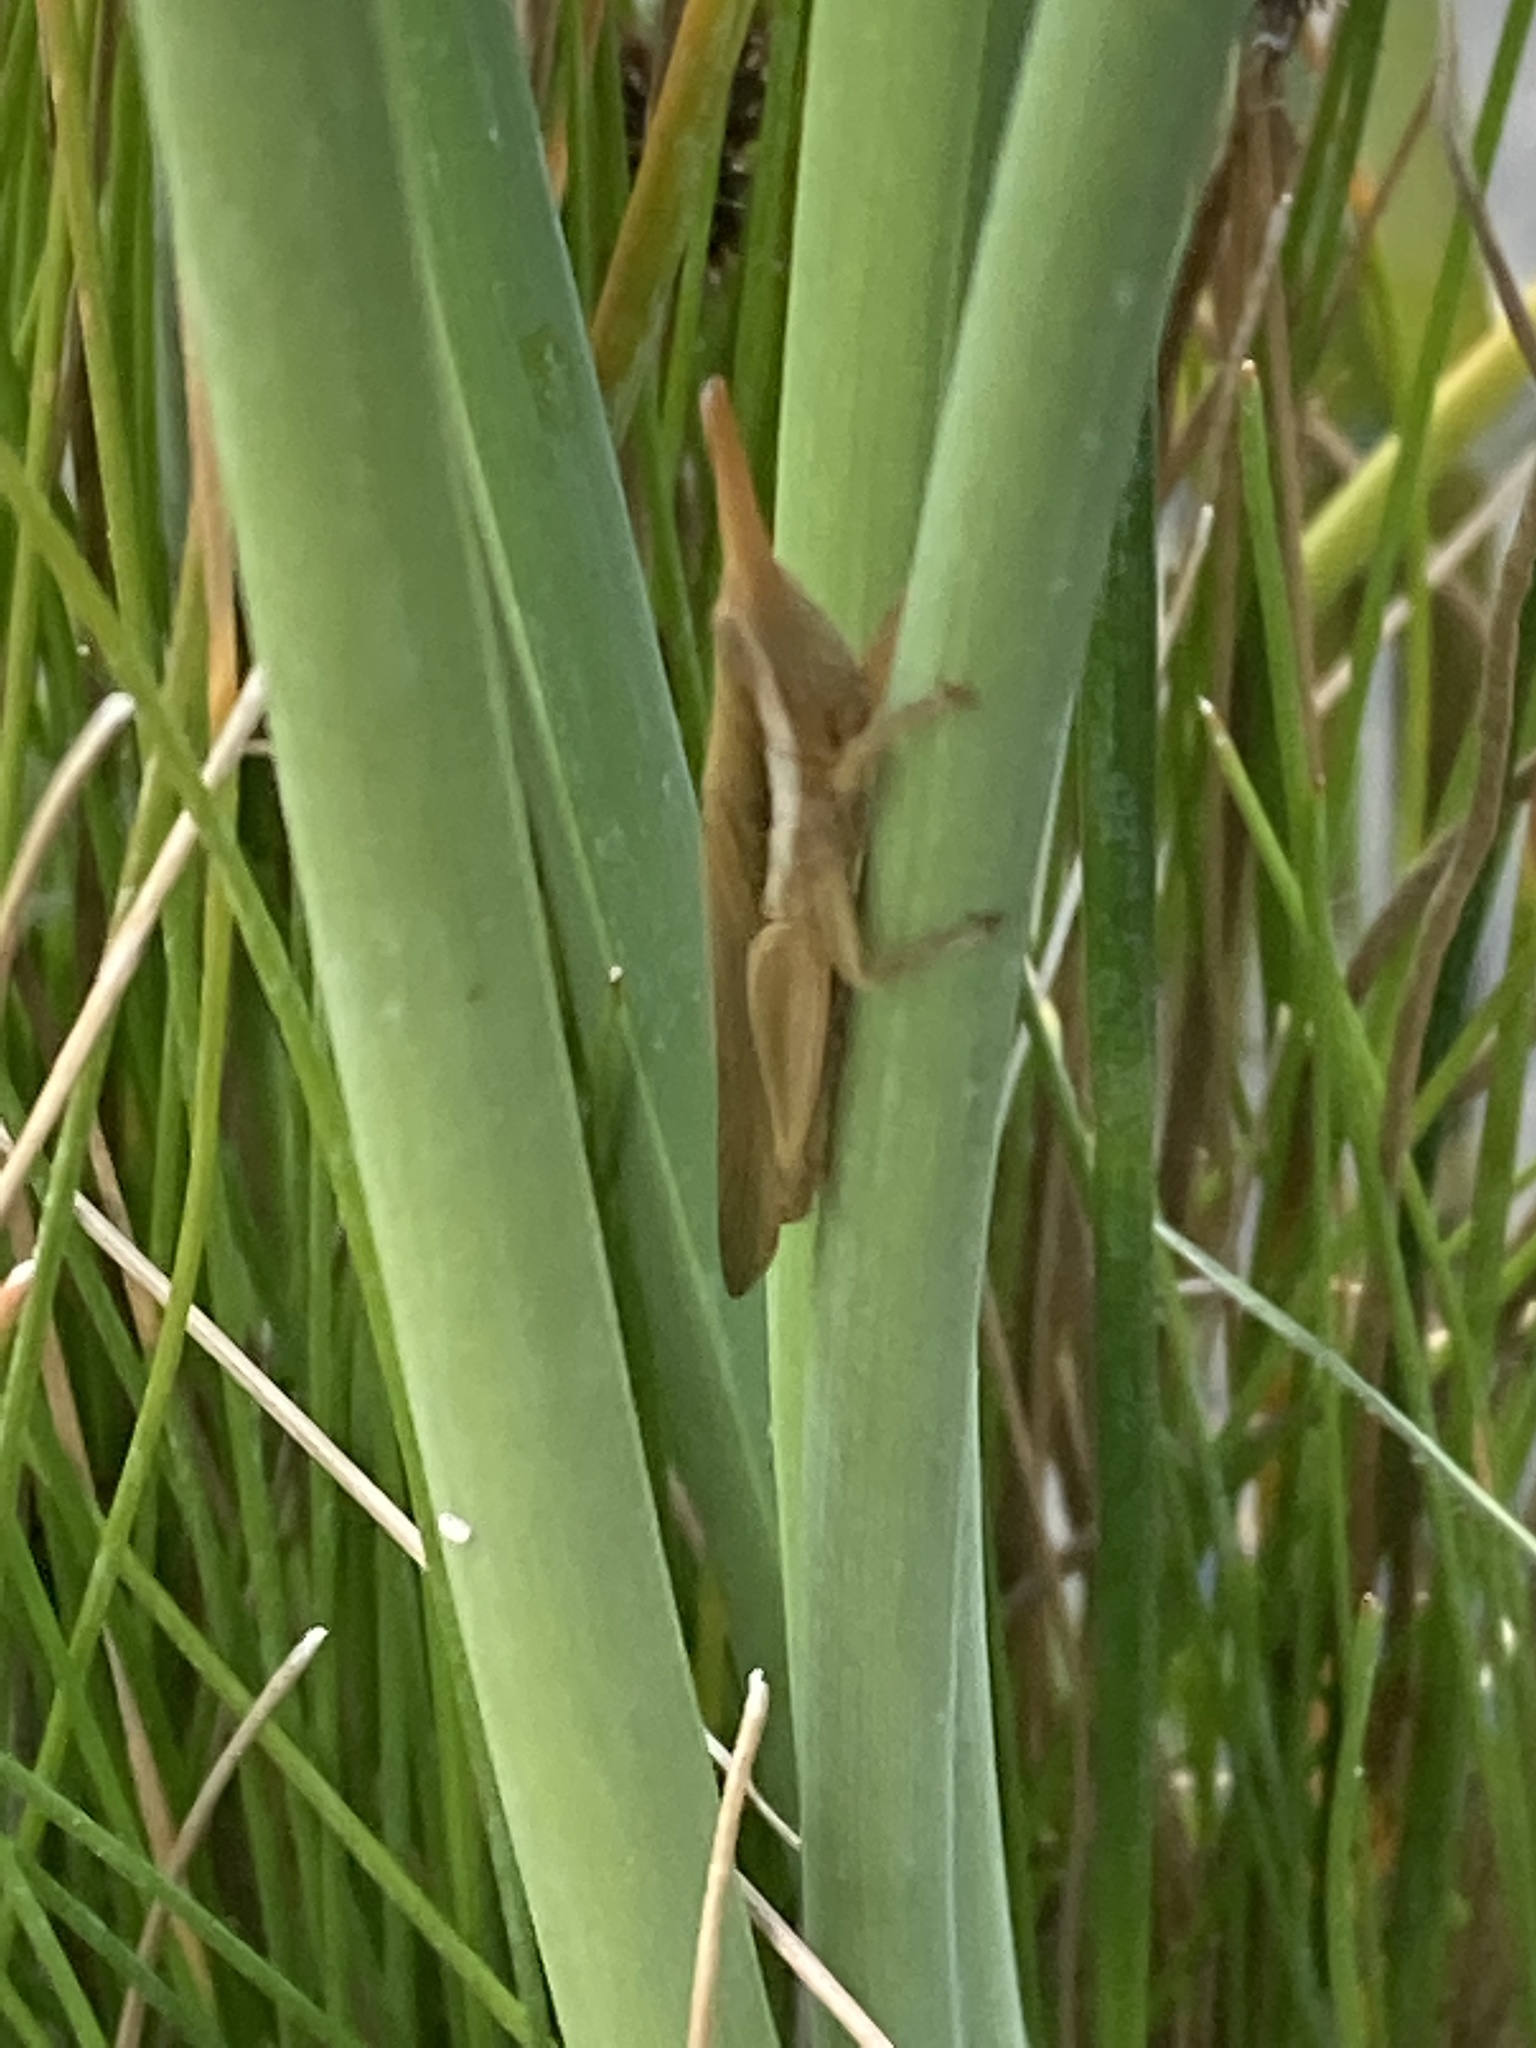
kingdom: Animalia
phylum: Arthropoda
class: Insecta
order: Orthoptera
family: Acrididae
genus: Leptysma
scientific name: Leptysma marginicollis
